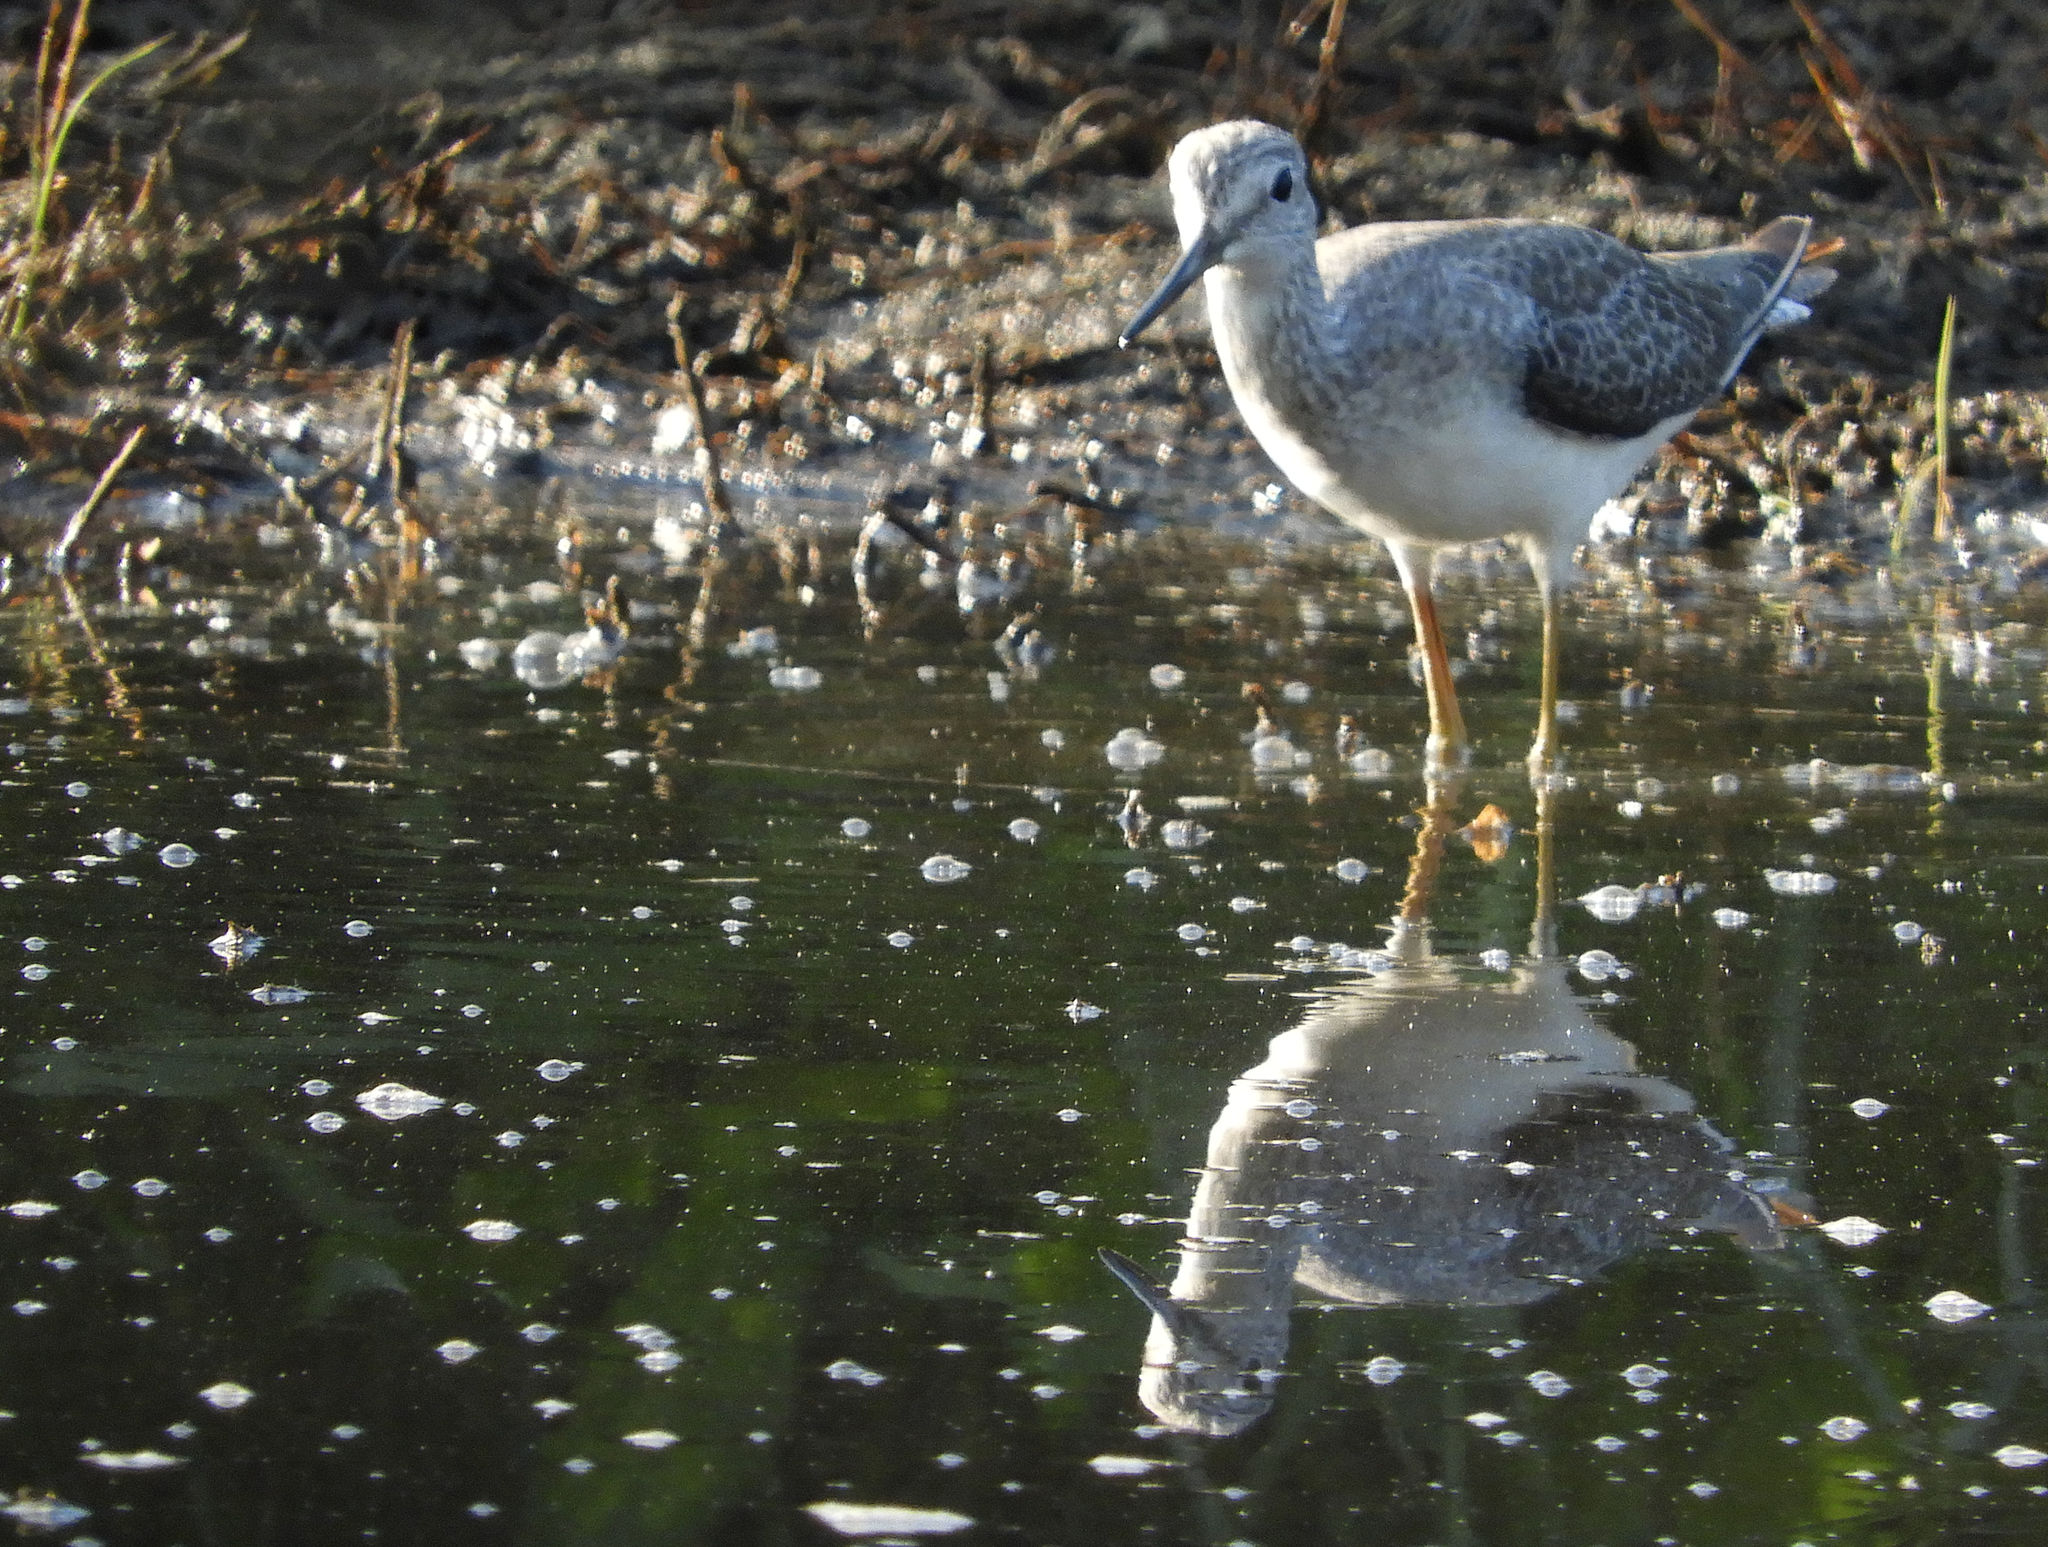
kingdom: Animalia
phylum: Chordata
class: Aves
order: Charadriiformes
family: Scolopacidae
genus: Tringa
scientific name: Tringa flavipes
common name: Lesser yellowlegs
